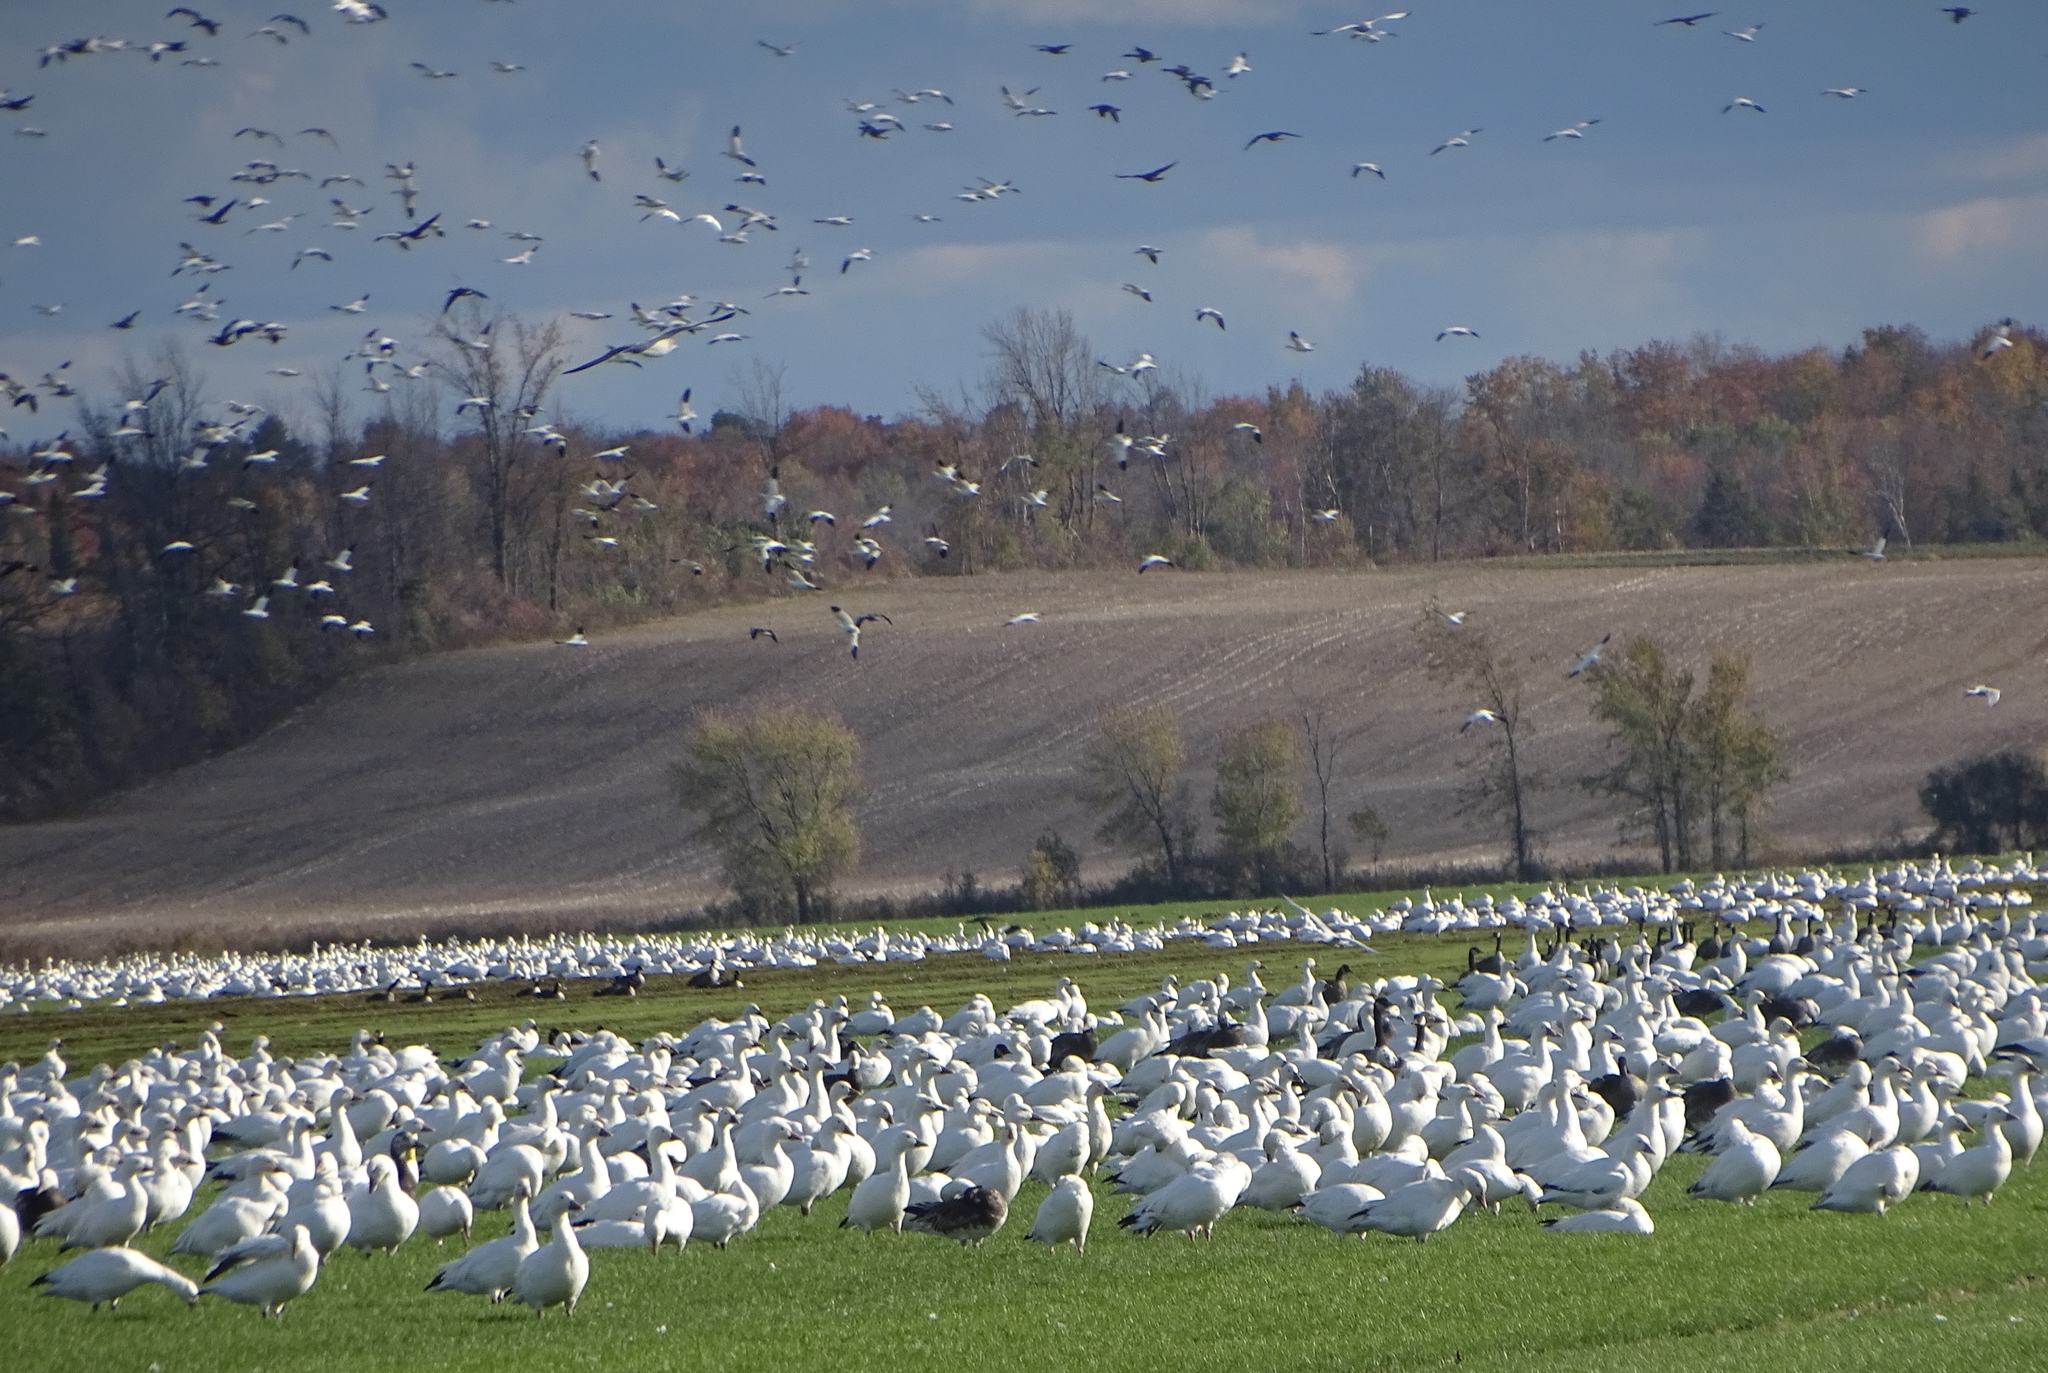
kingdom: Animalia
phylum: Chordata
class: Aves
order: Anseriformes
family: Anatidae
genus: Anser
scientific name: Anser caerulescens
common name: Snow goose
